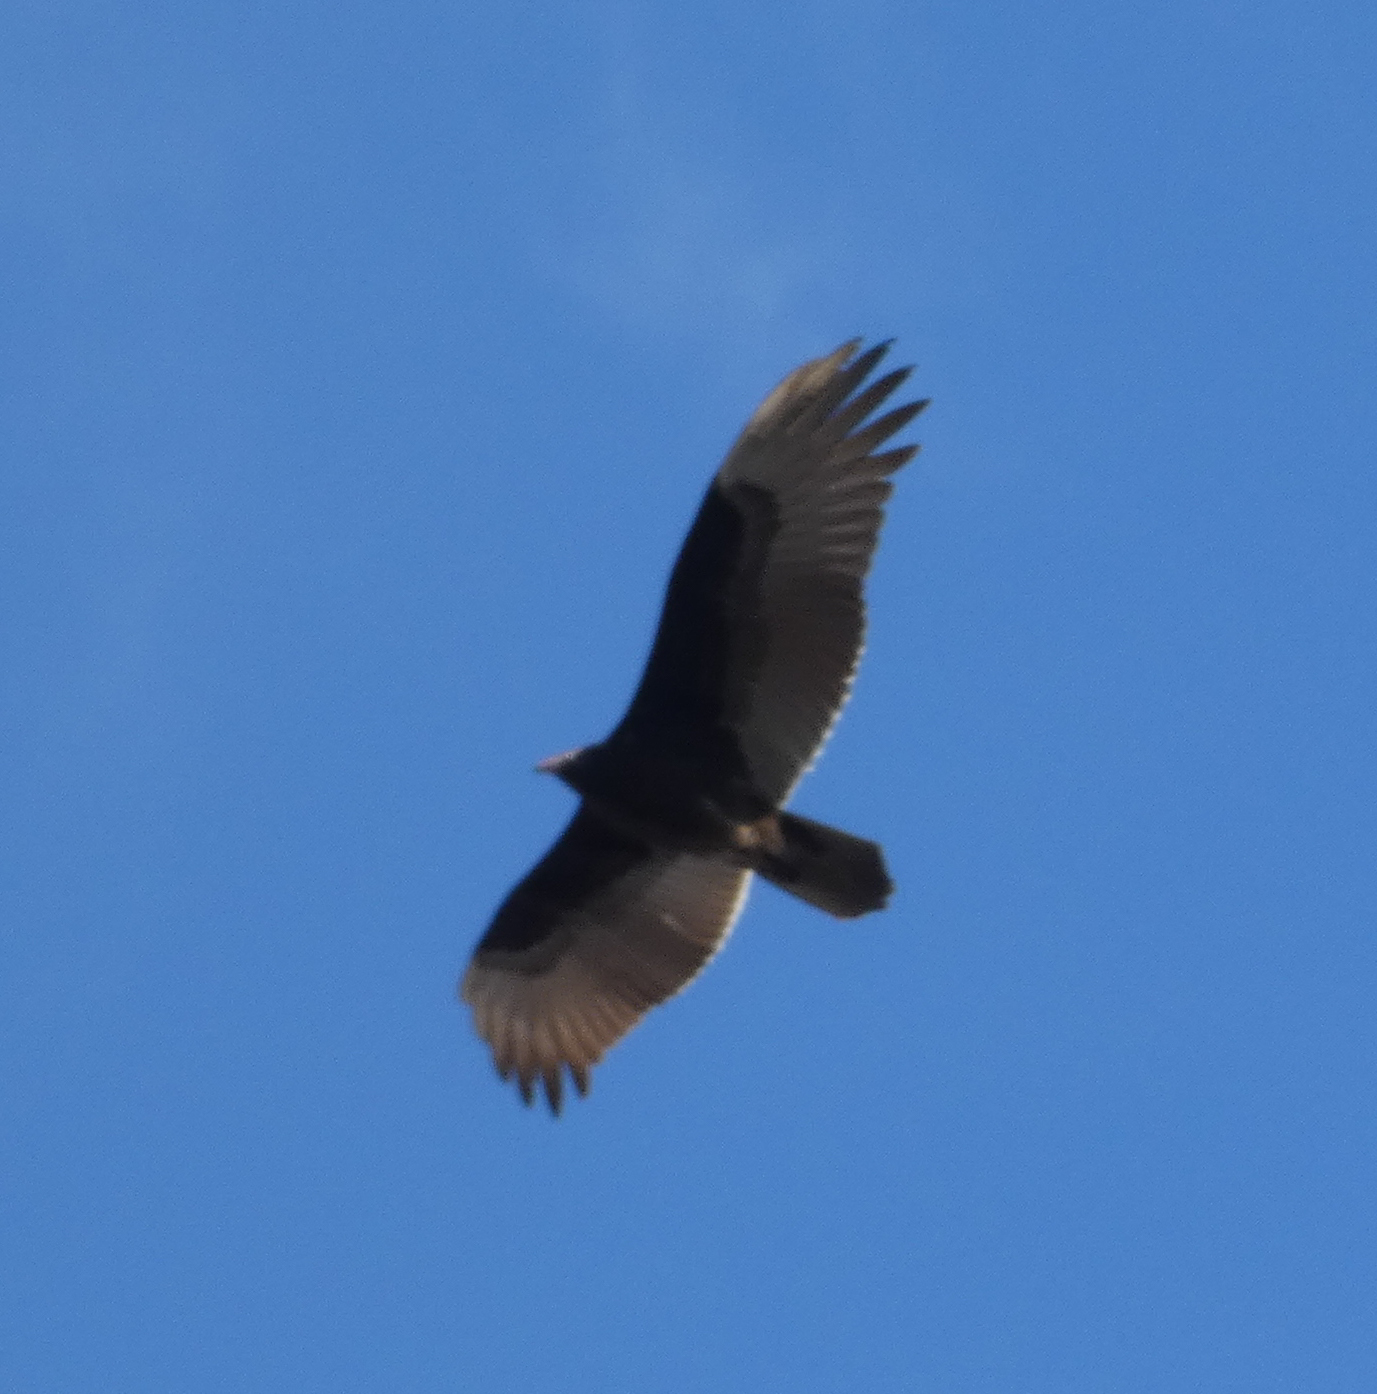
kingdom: Animalia
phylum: Chordata
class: Aves
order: Accipitriformes
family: Cathartidae
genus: Cathartes
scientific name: Cathartes aura
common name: Turkey vulture
